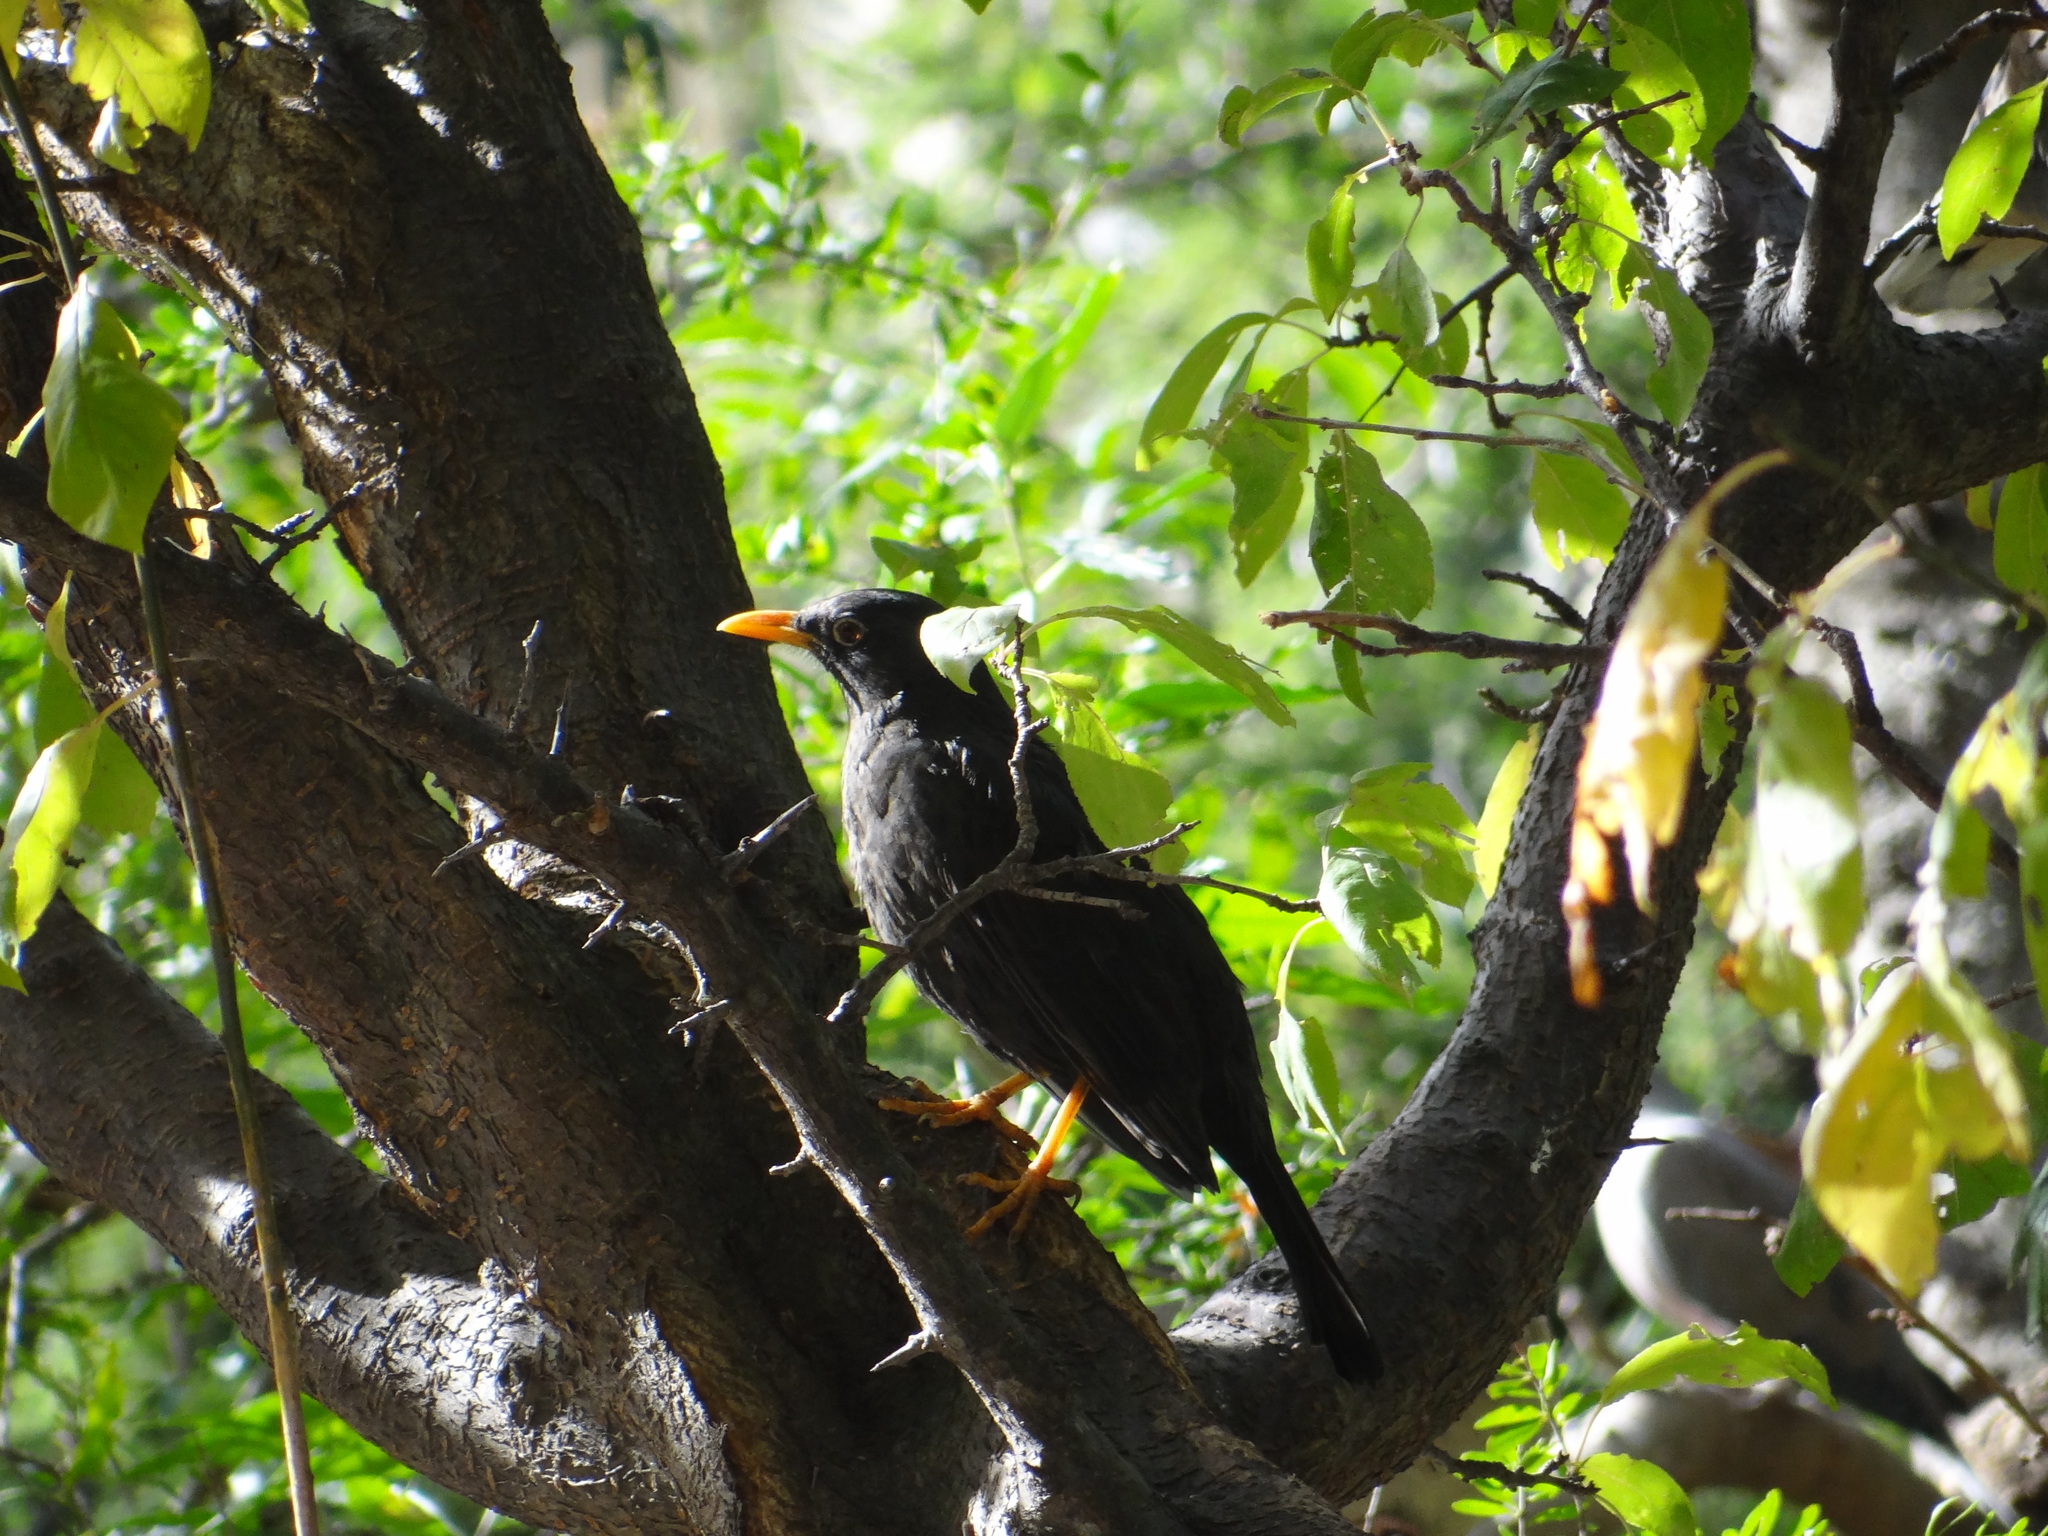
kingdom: Animalia
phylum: Chordata
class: Aves
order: Passeriformes
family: Turdidae
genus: Turdus
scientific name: Turdus chiguanco
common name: Chiguanco thrush
